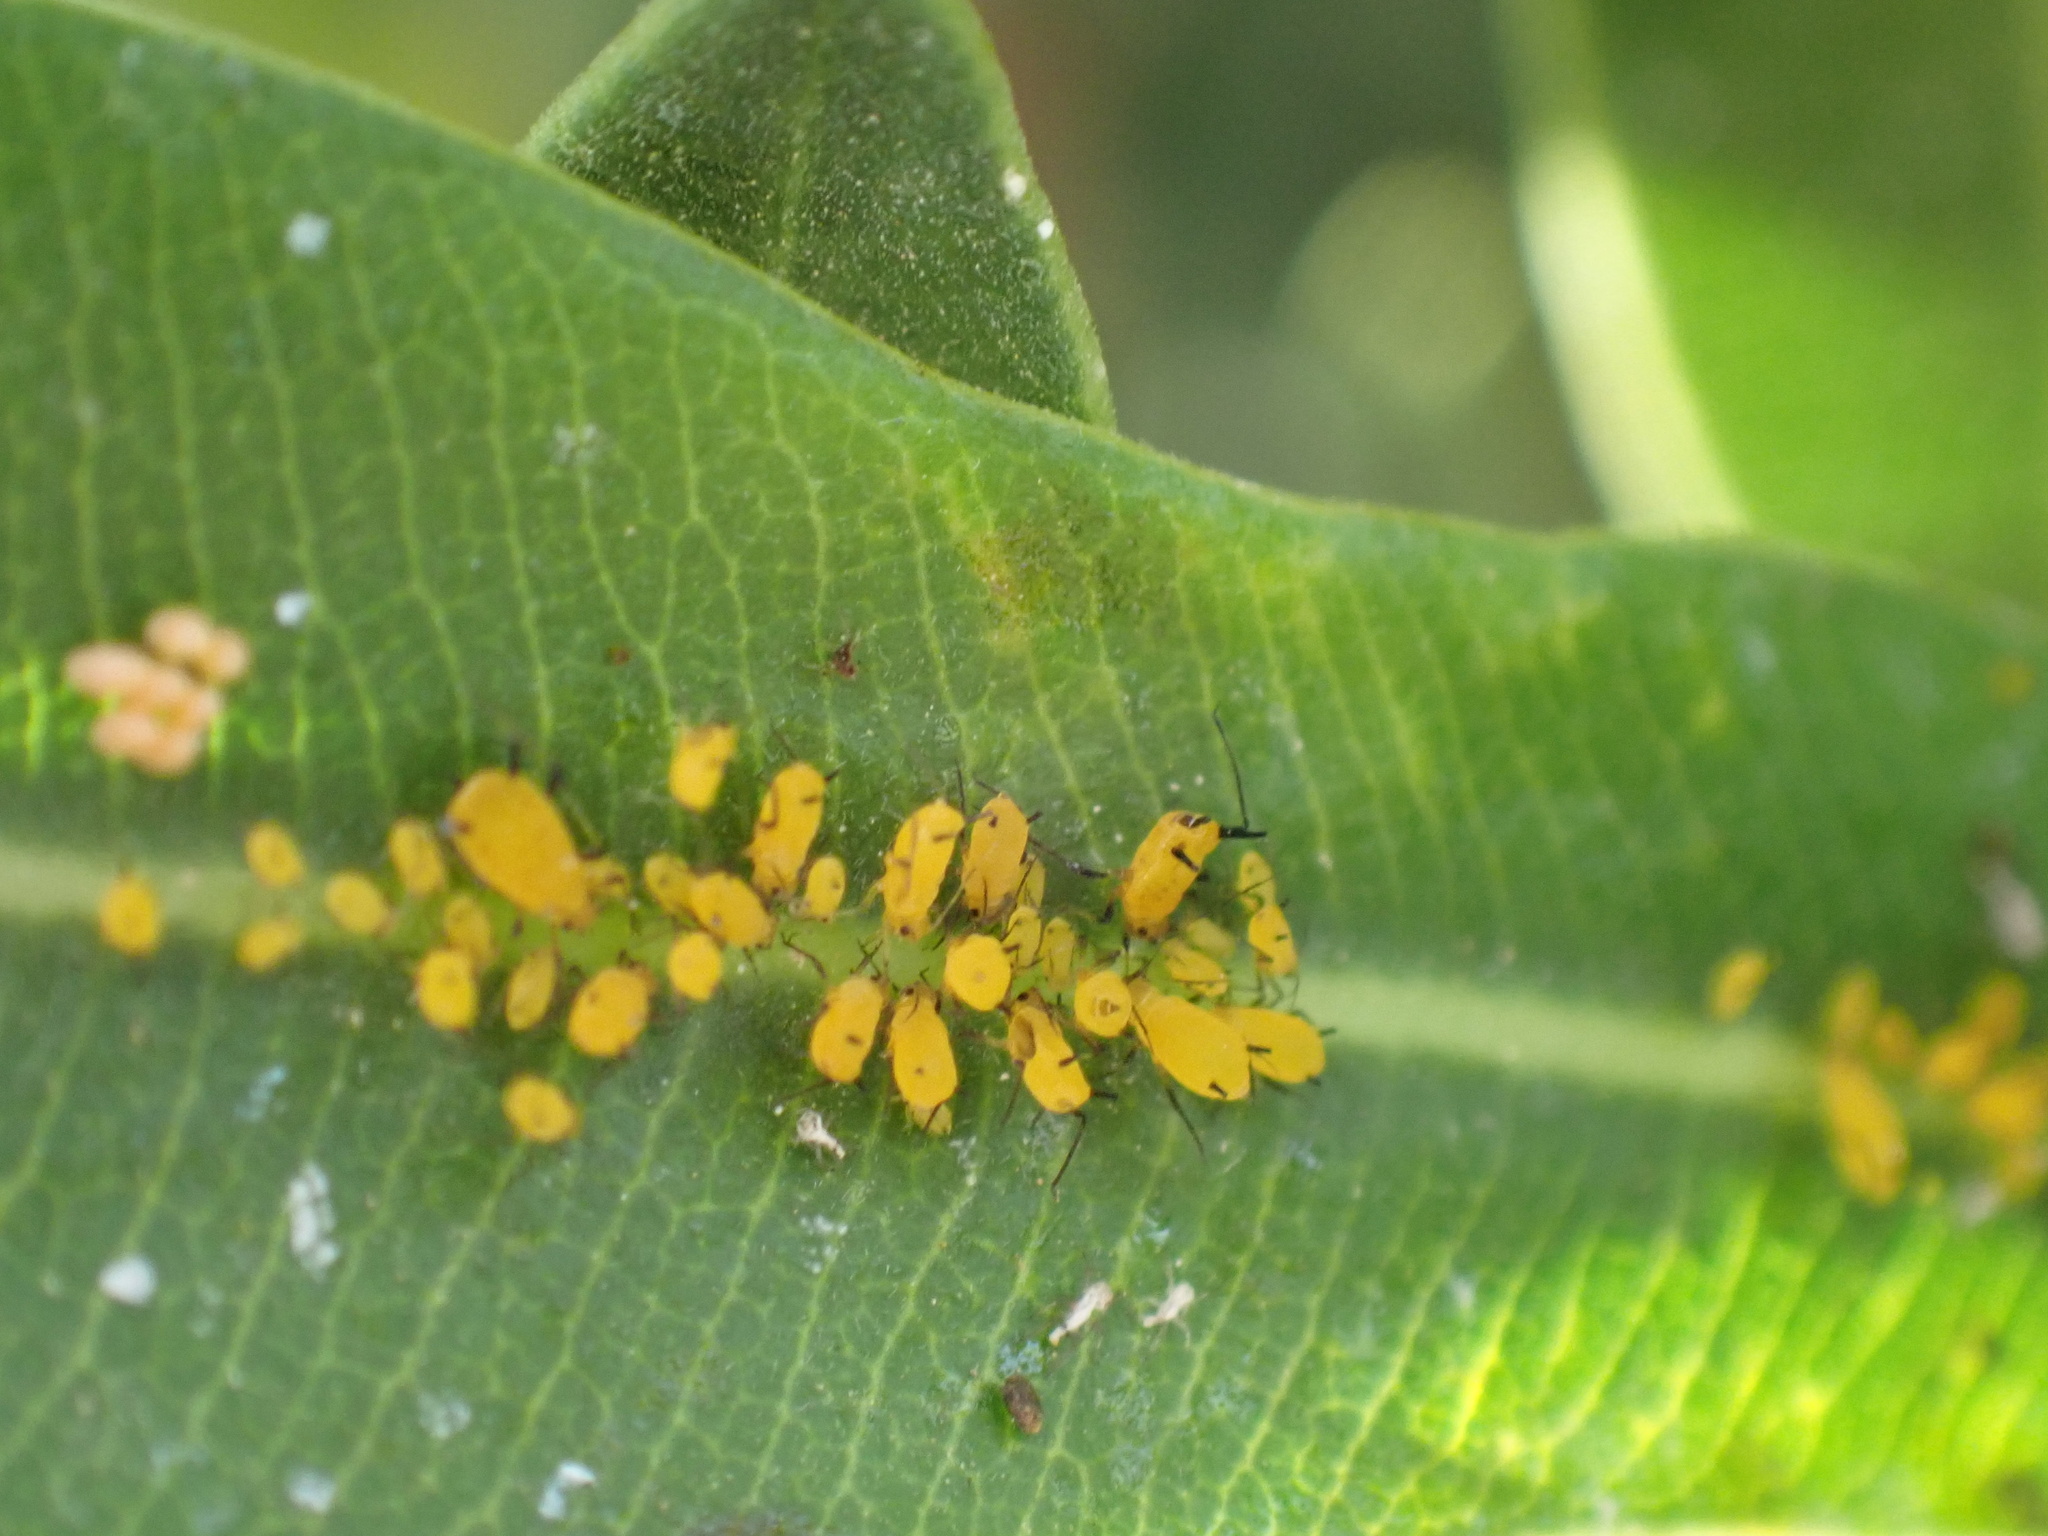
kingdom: Animalia
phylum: Arthropoda
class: Insecta
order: Hemiptera
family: Aphididae
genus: Aphis
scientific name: Aphis nerii
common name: Oleander aphid
